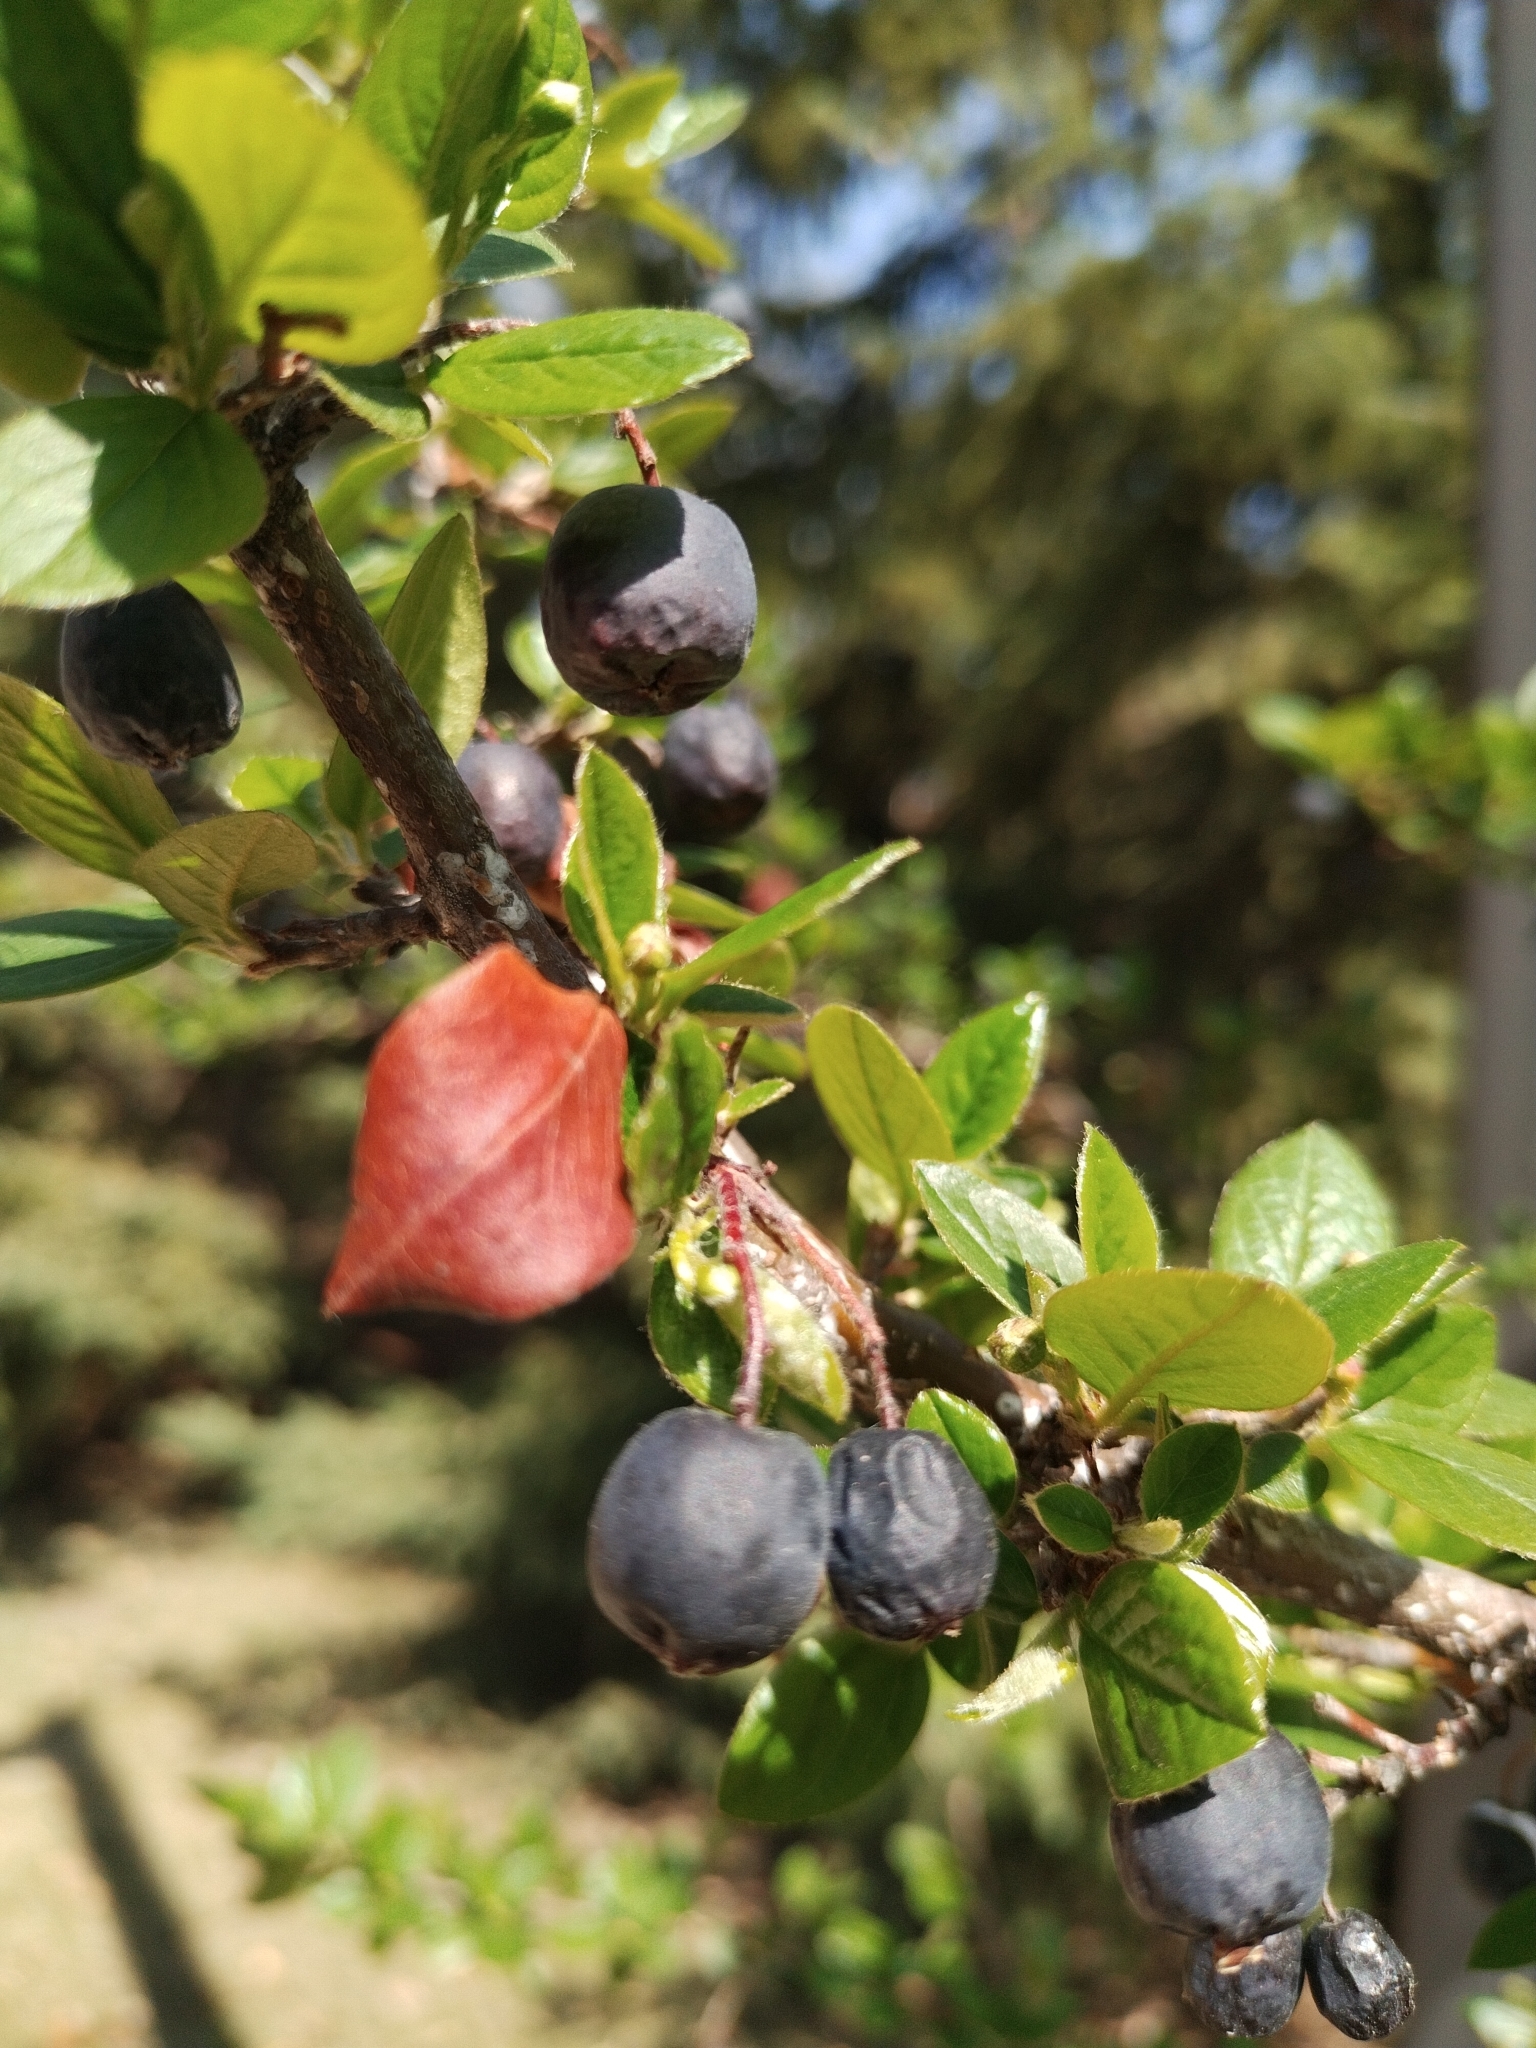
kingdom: Plantae
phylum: Tracheophyta
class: Magnoliopsida
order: Rosales
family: Rosaceae
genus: Cotoneaster
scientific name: Cotoneaster acutifolius
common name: Peking cotoneaster
